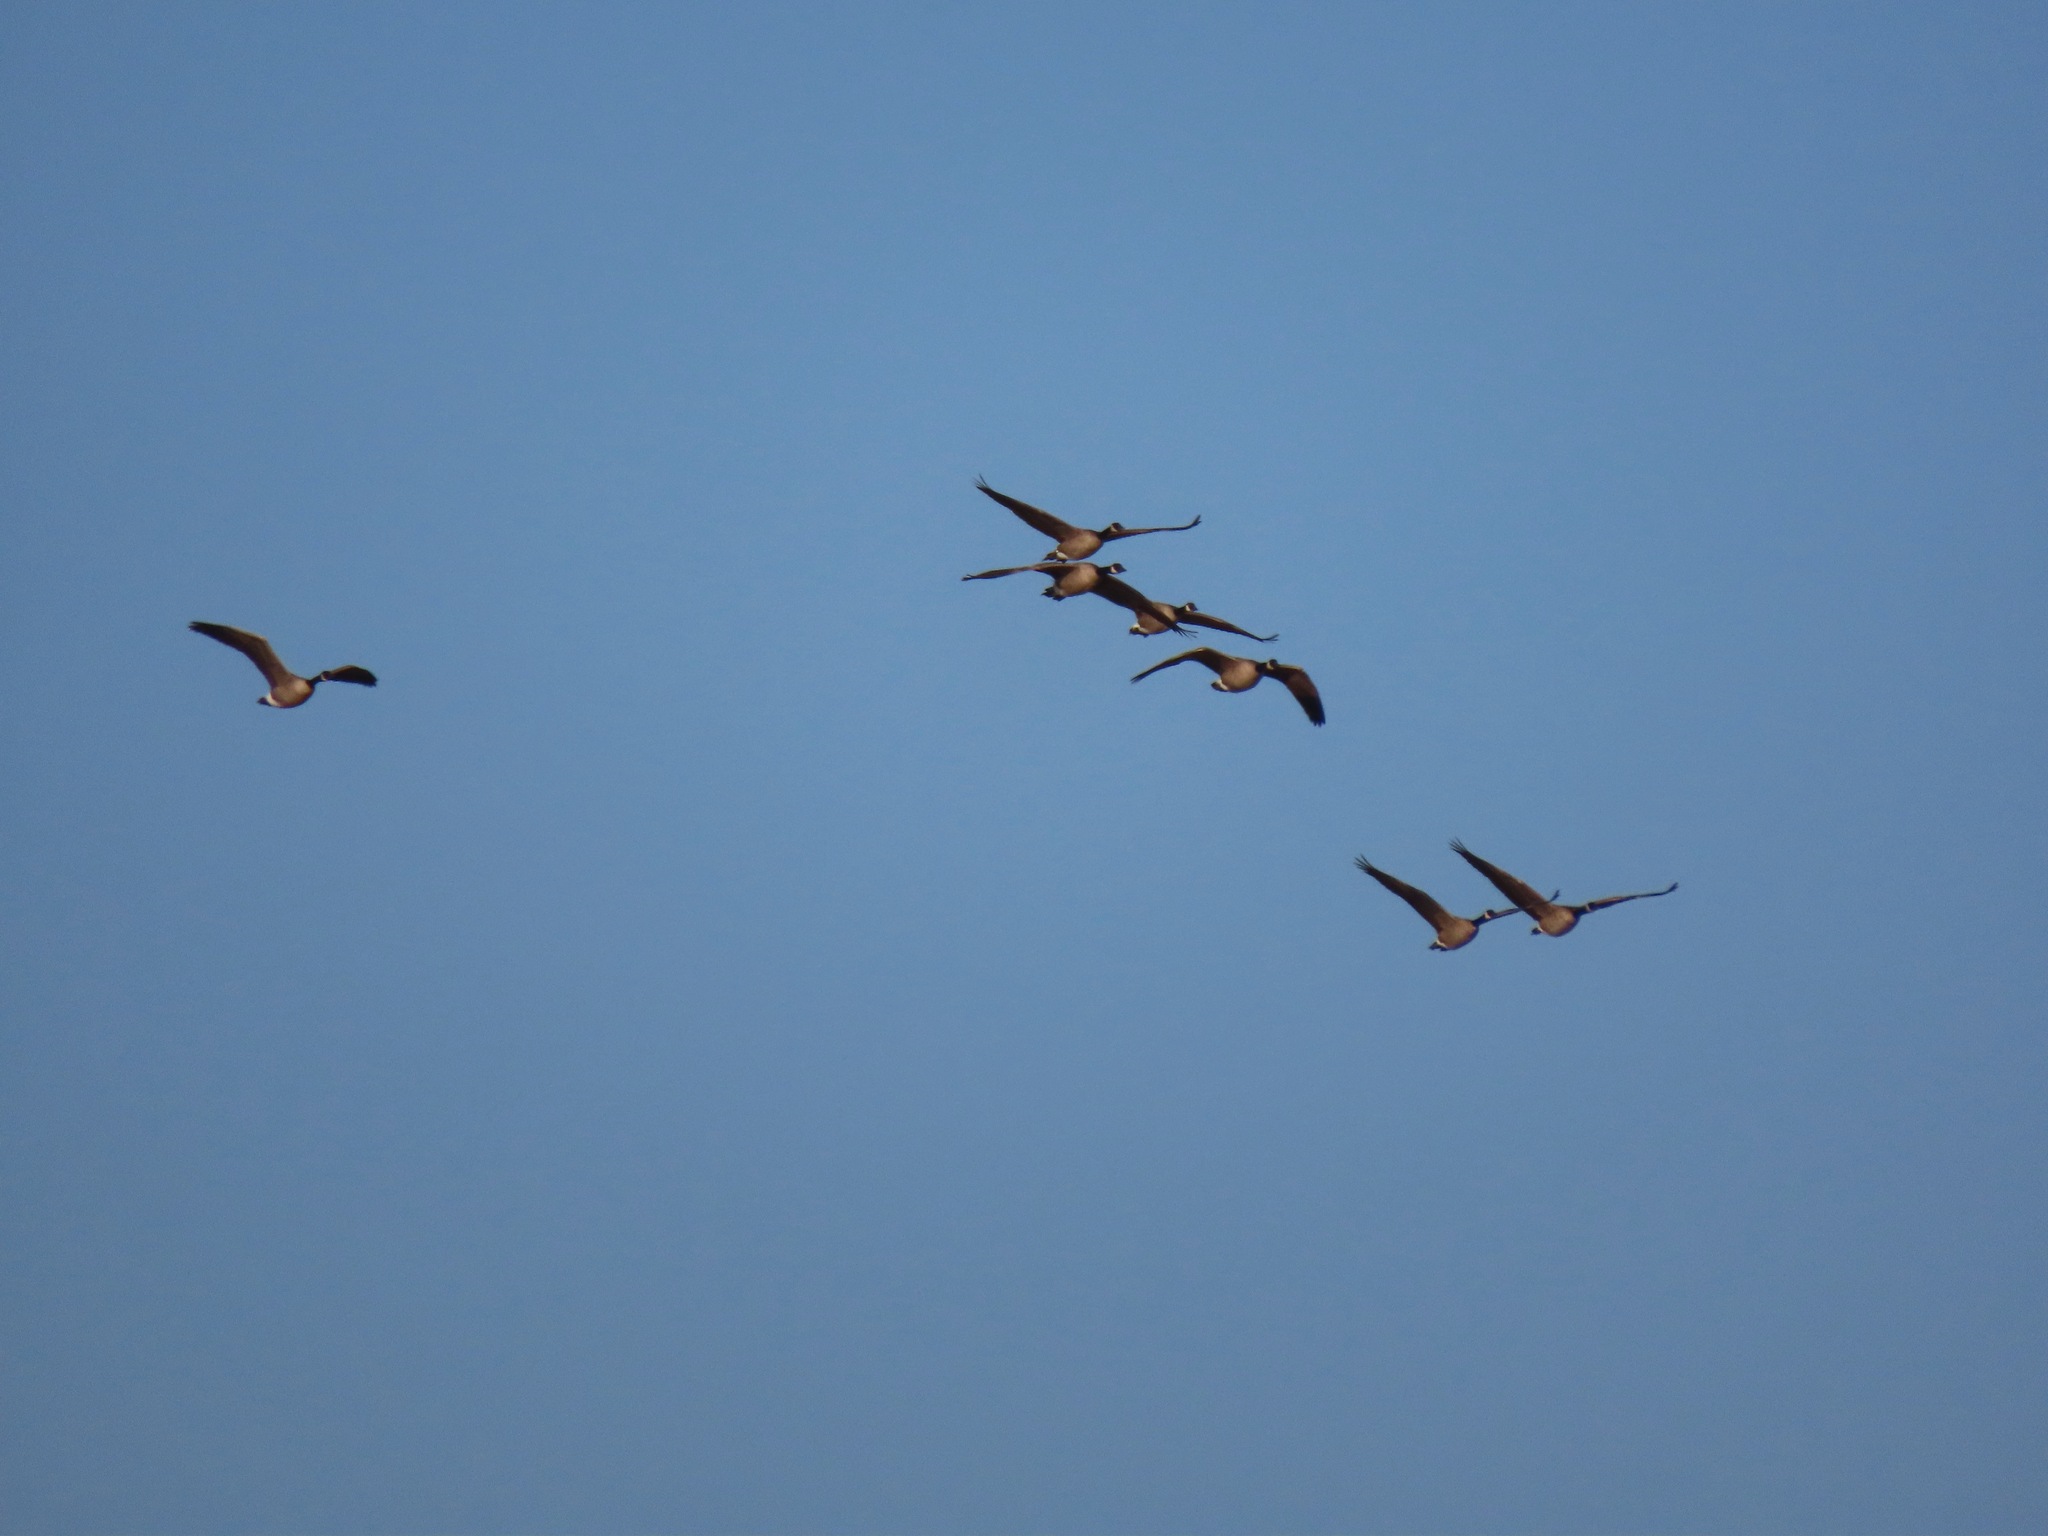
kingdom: Animalia
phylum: Chordata
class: Aves
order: Anseriformes
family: Anatidae
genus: Branta
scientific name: Branta canadensis
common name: Canada goose
